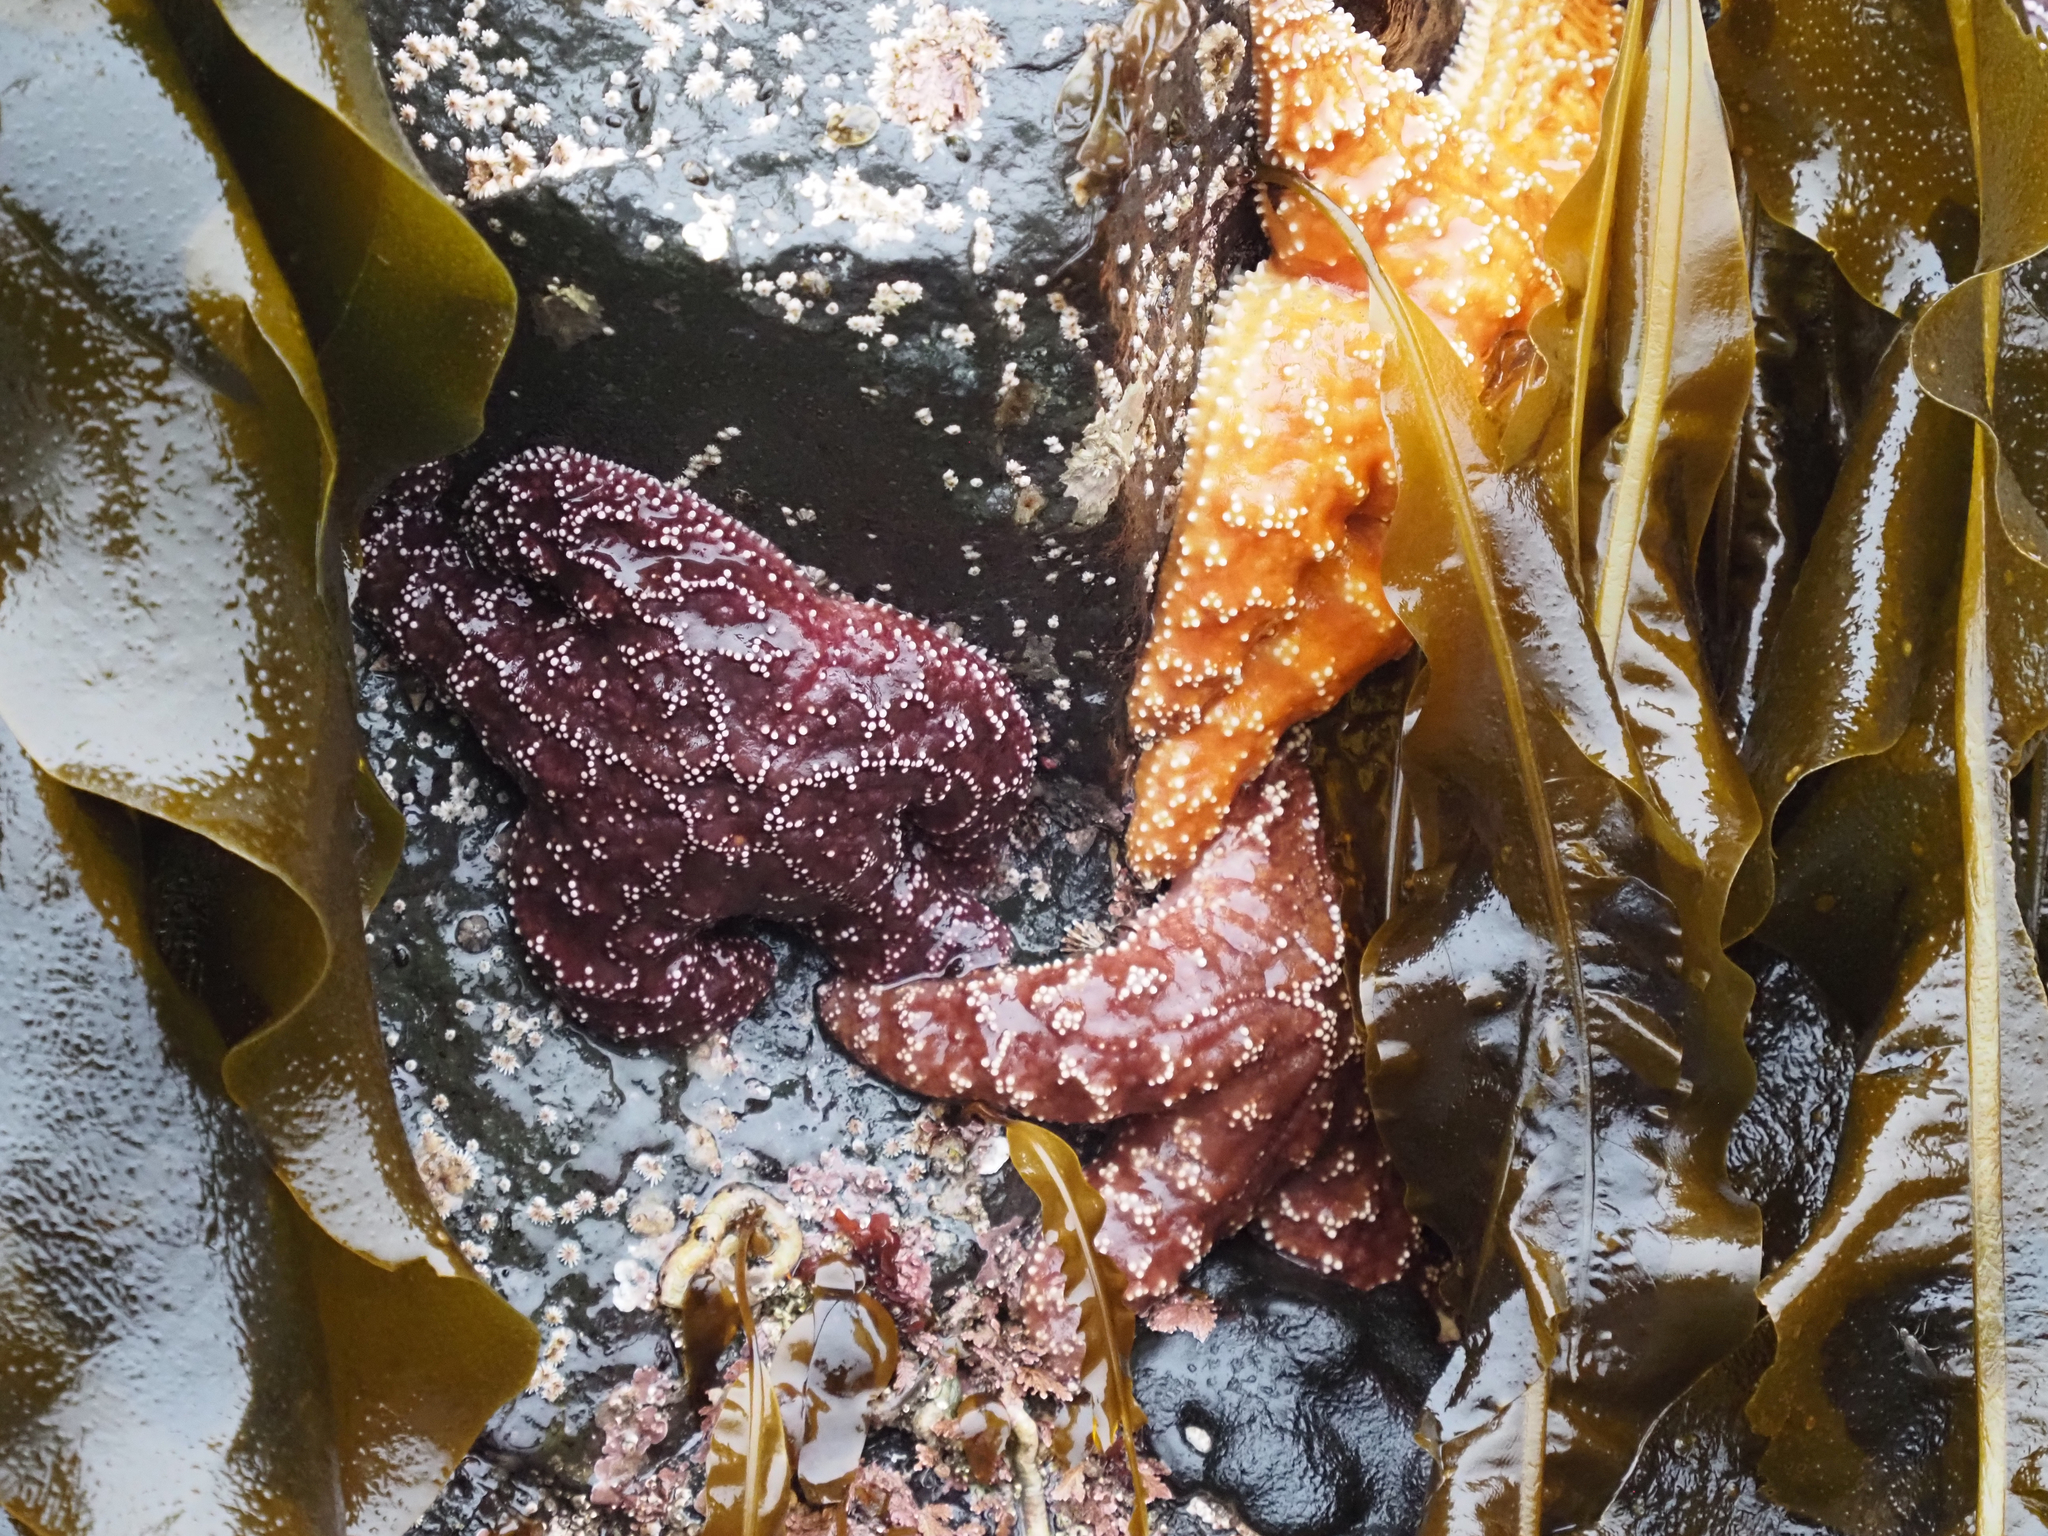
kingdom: Animalia
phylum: Echinodermata
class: Asteroidea
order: Forcipulatida
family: Asteriidae
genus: Pisaster
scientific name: Pisaster ochraceus
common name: Ochre stars
